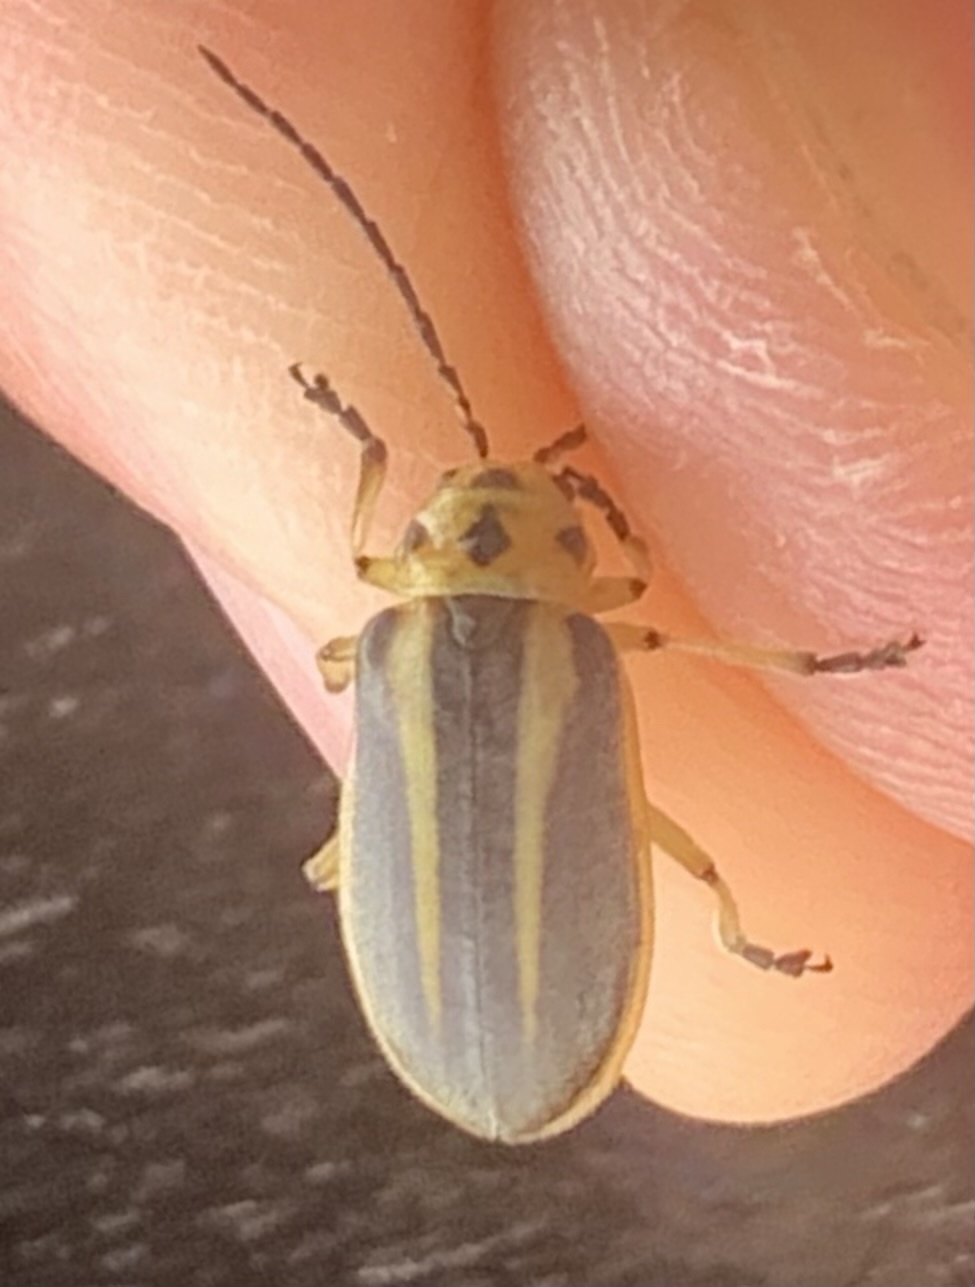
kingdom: Animalia
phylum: Arthropoda
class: Insecta
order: Coleoptera
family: Chrysomelidae
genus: Trirhabda
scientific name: Trirhabda bacharidis
